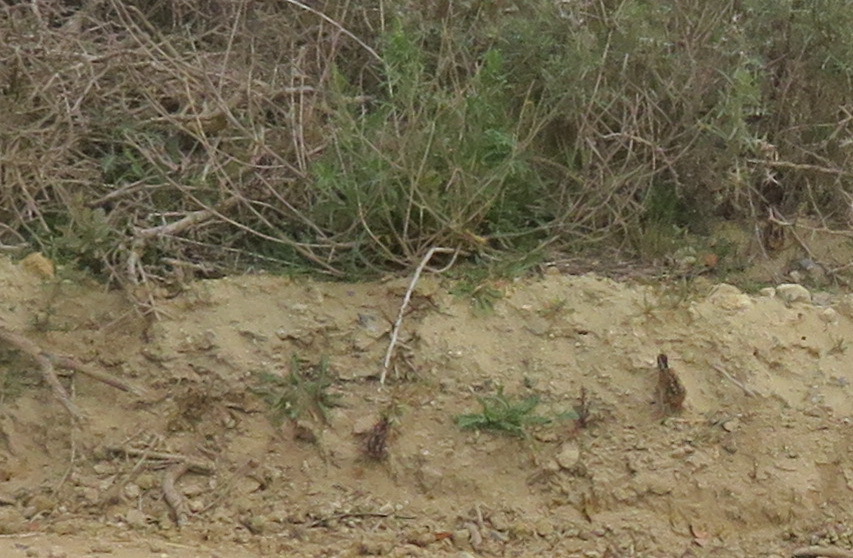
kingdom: Animalia
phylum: Chordata
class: Aves
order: Galliformes
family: Phasianidae
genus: Scleroptila
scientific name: Scleroptila afra
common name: Grey-winged francolin
